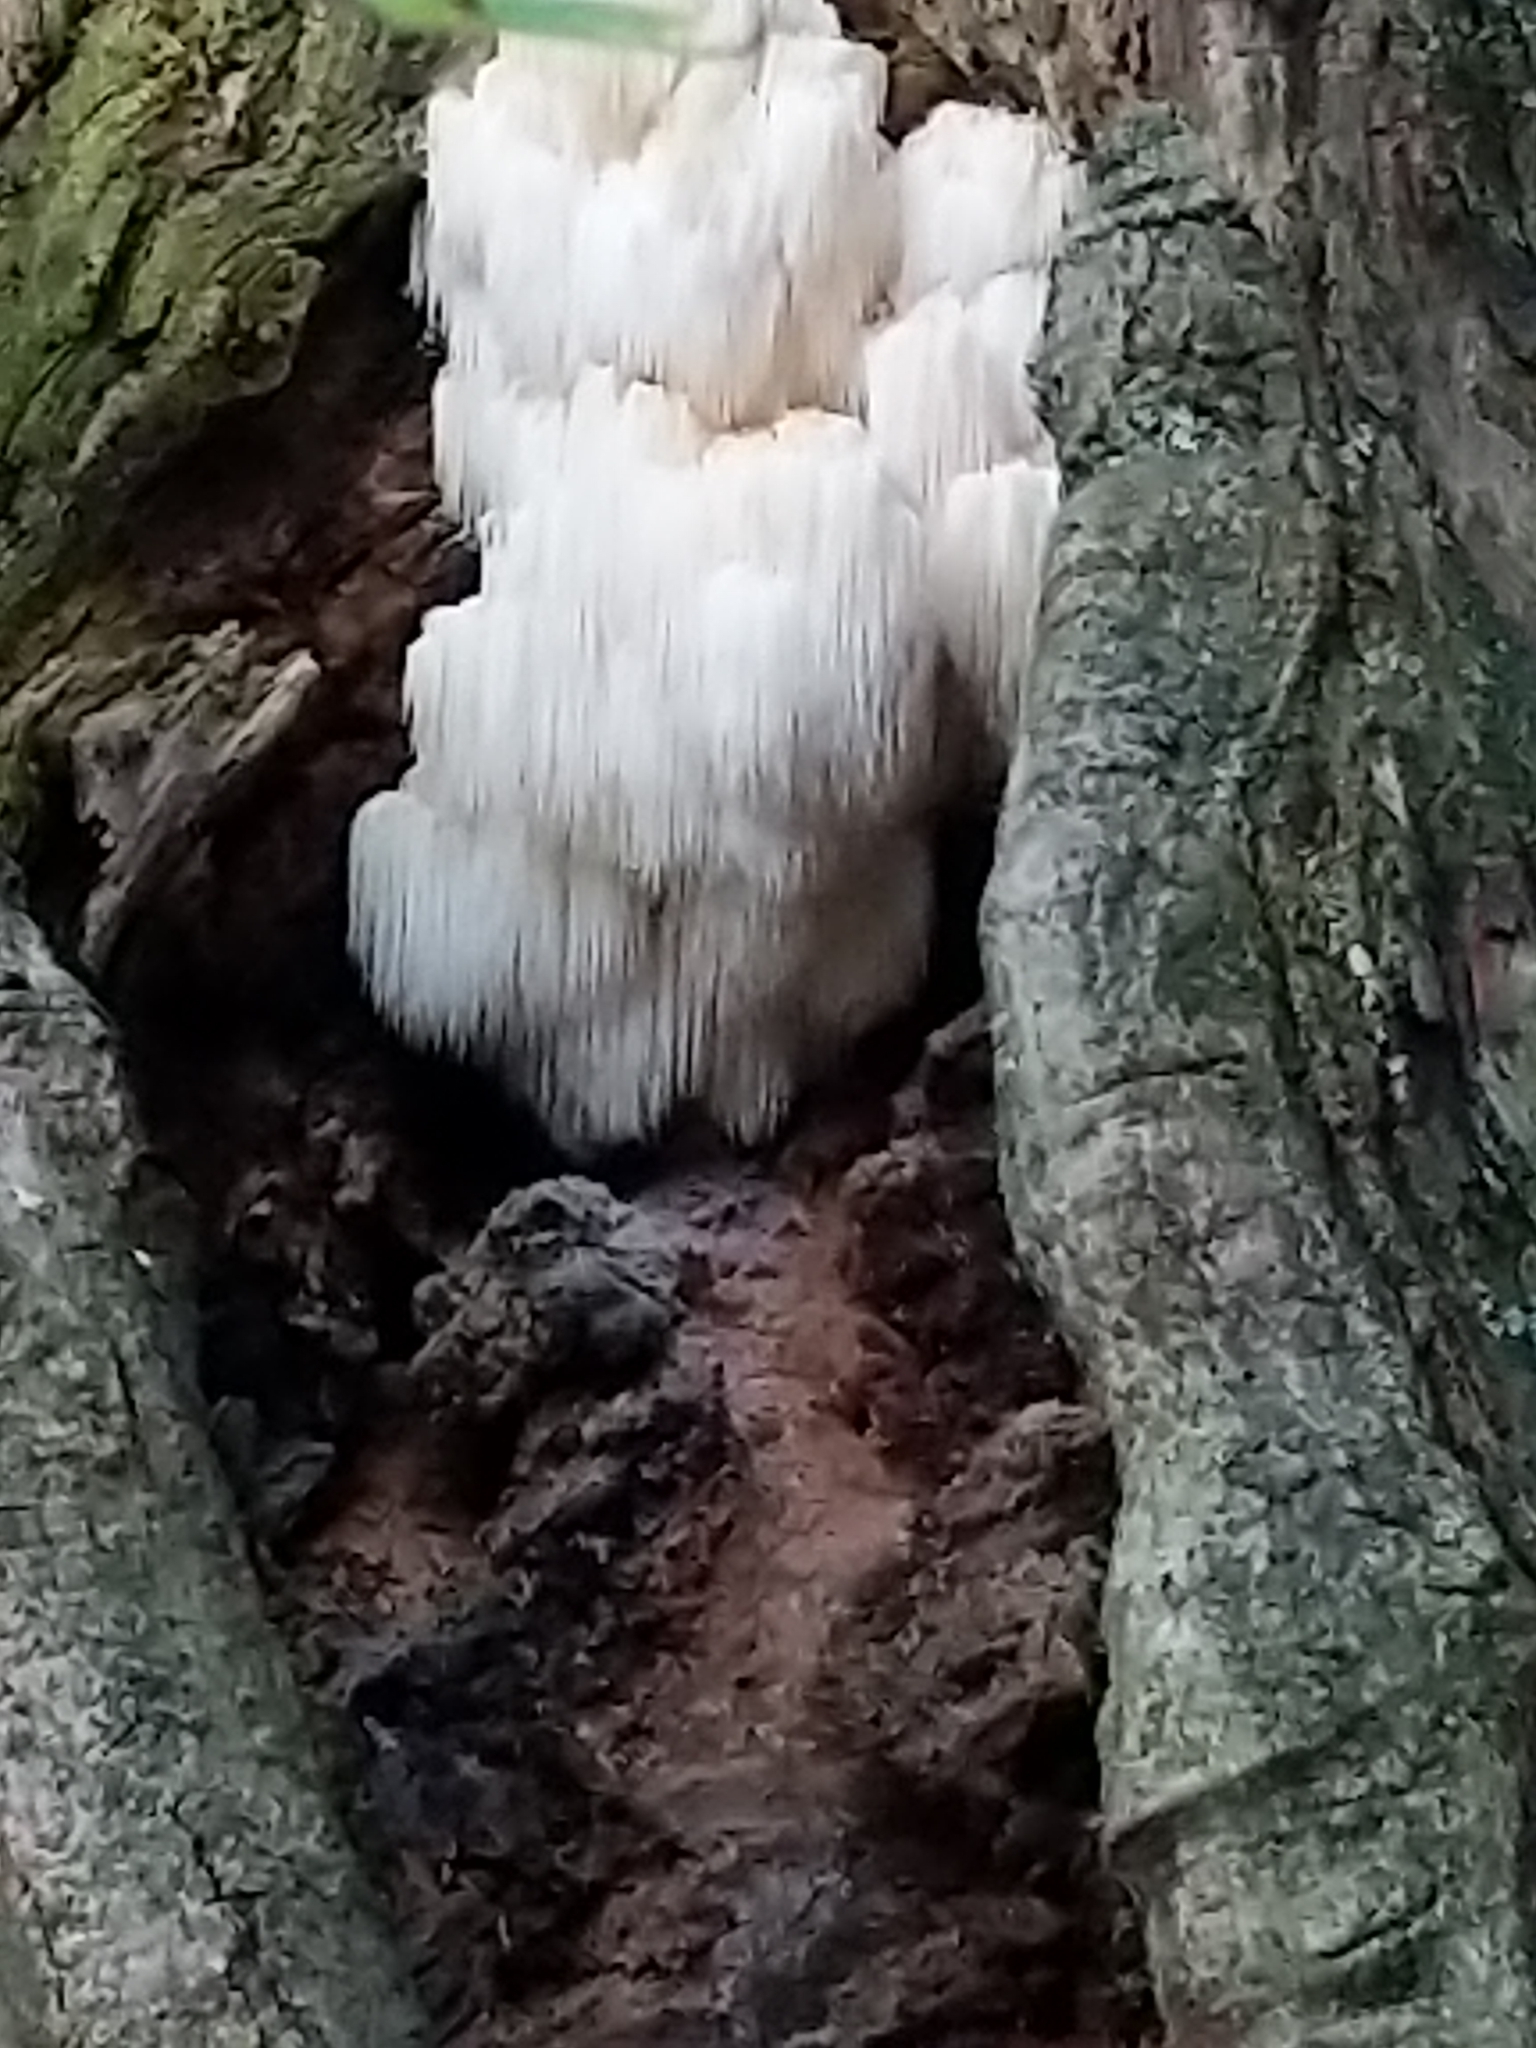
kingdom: Fungi
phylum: Basidiomycota
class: Agaricomycetes
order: Russulales
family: Hericiaceae
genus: Hericium
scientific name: Hericium americanum
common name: Bear's head tooth
